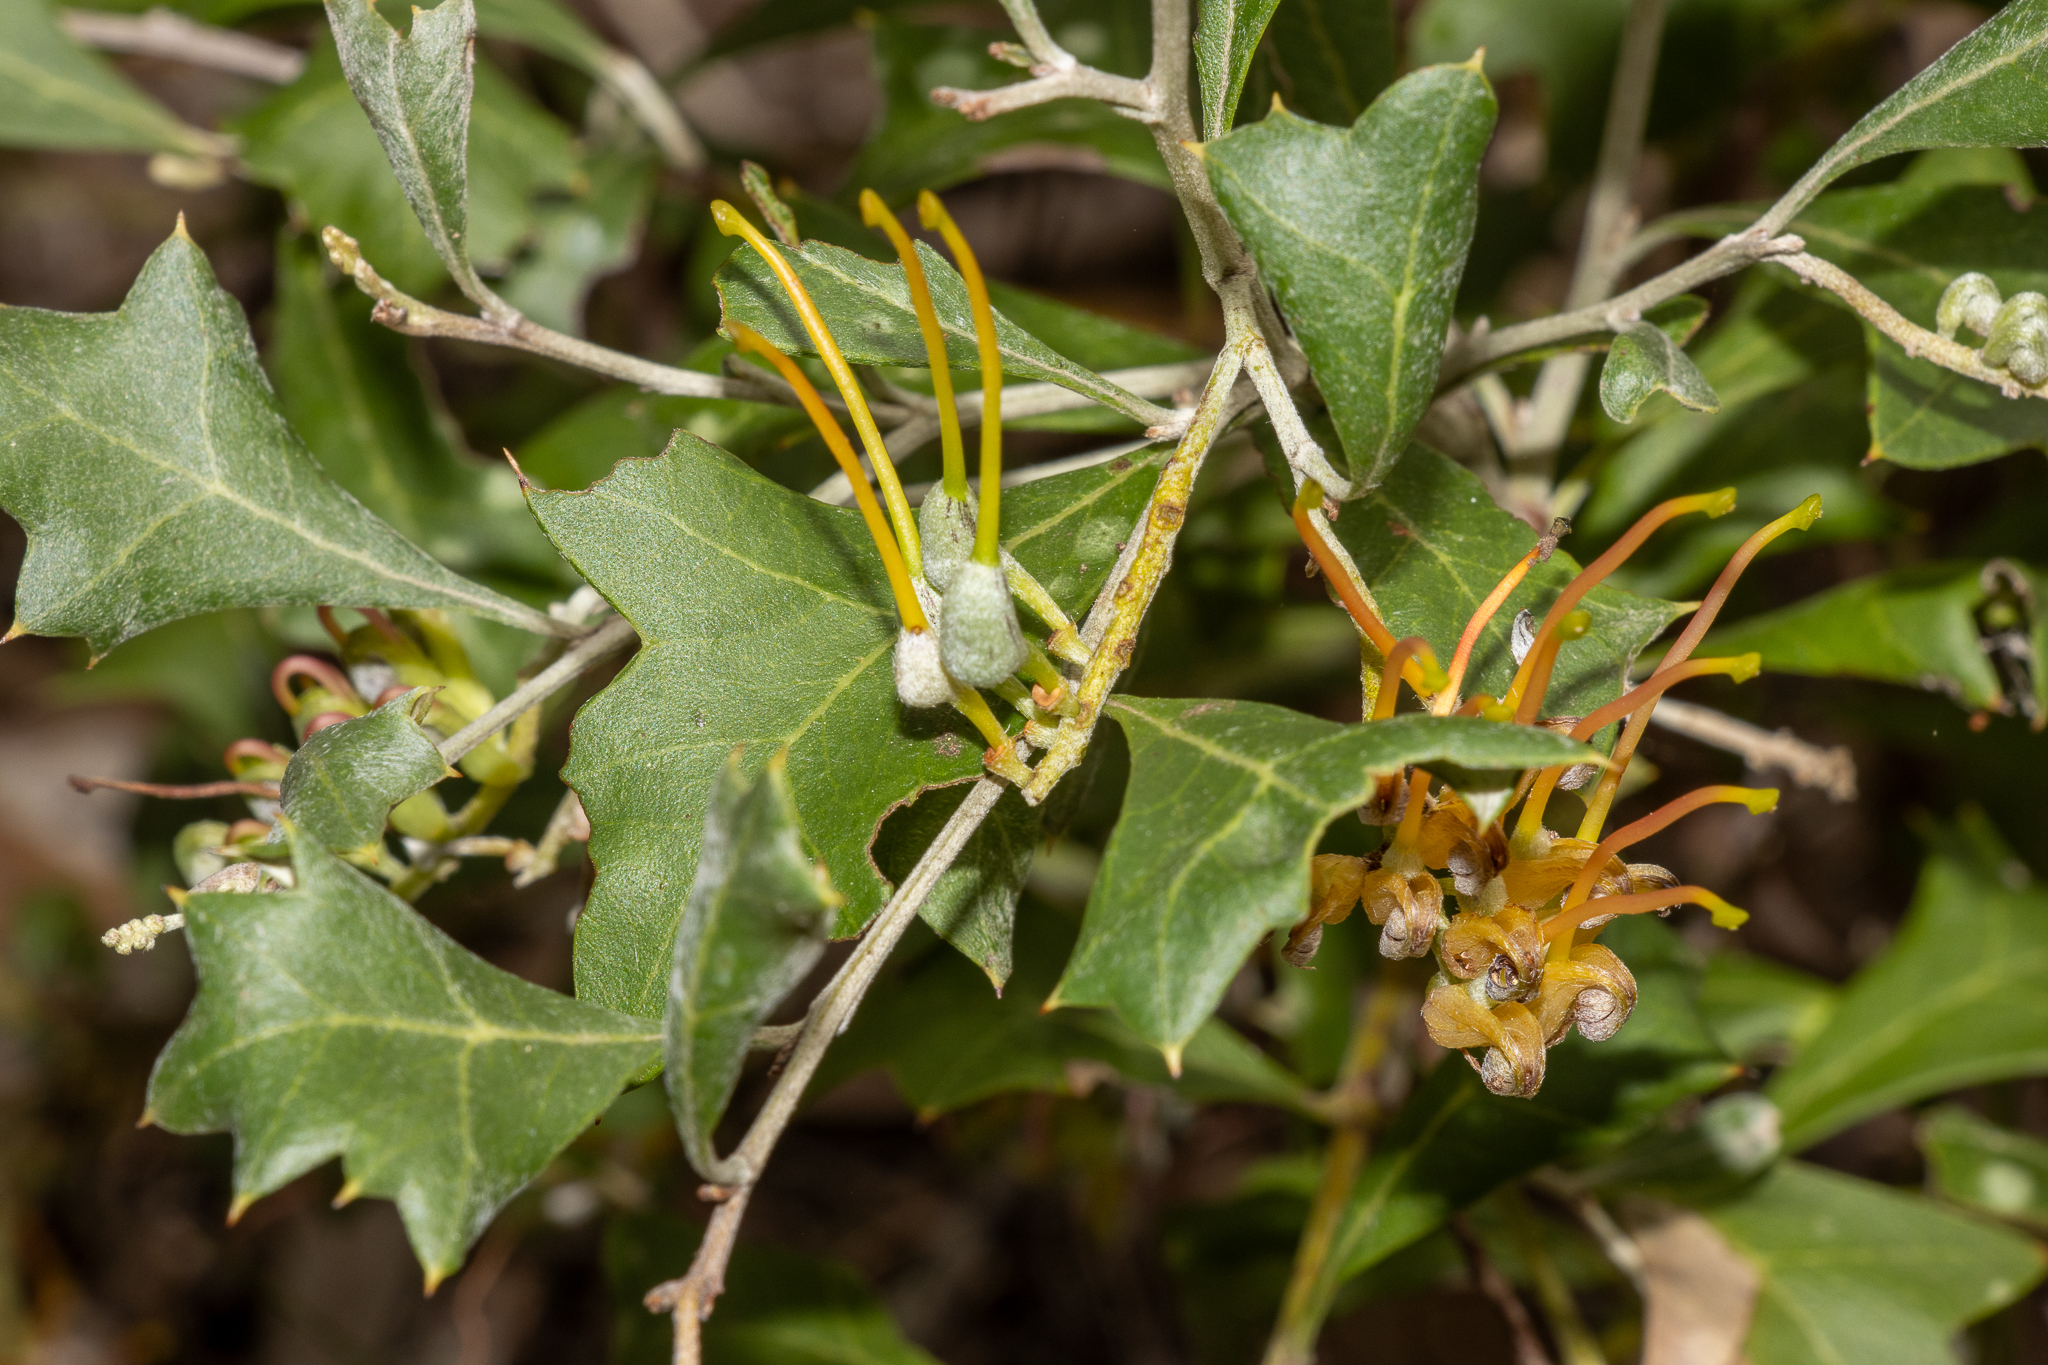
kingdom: Plantae
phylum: Tracheophyta
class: Magnoliopsida
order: Proteales
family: Proteaceae
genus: Grevillea
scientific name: Grevillea ilicifolia
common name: Holly grevillea
